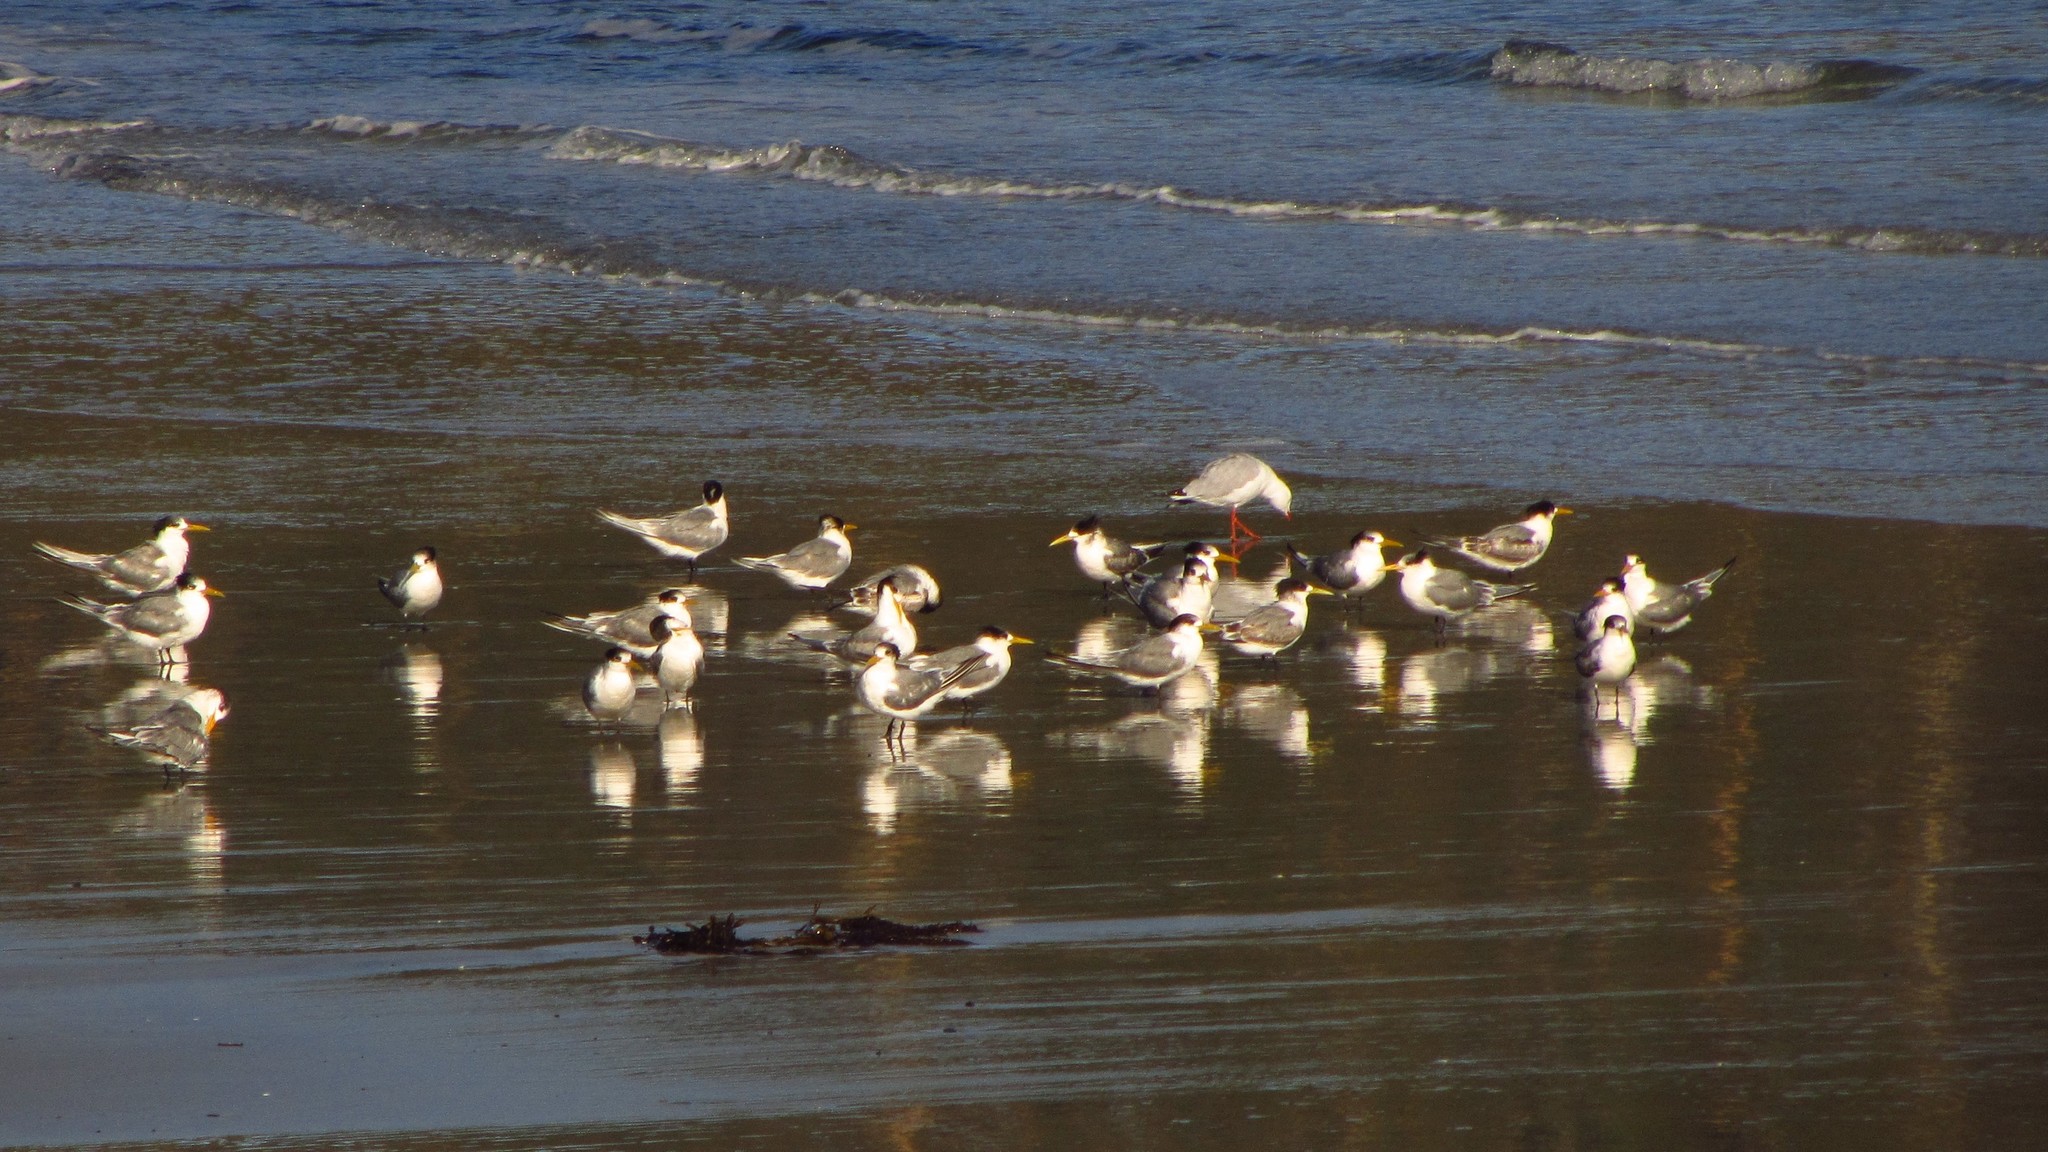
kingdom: Animalia
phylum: Chordata
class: Aves
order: Charadriiformes
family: Laridae
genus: Thalasseus
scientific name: Thalasseus bergii
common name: Greater crested tern
